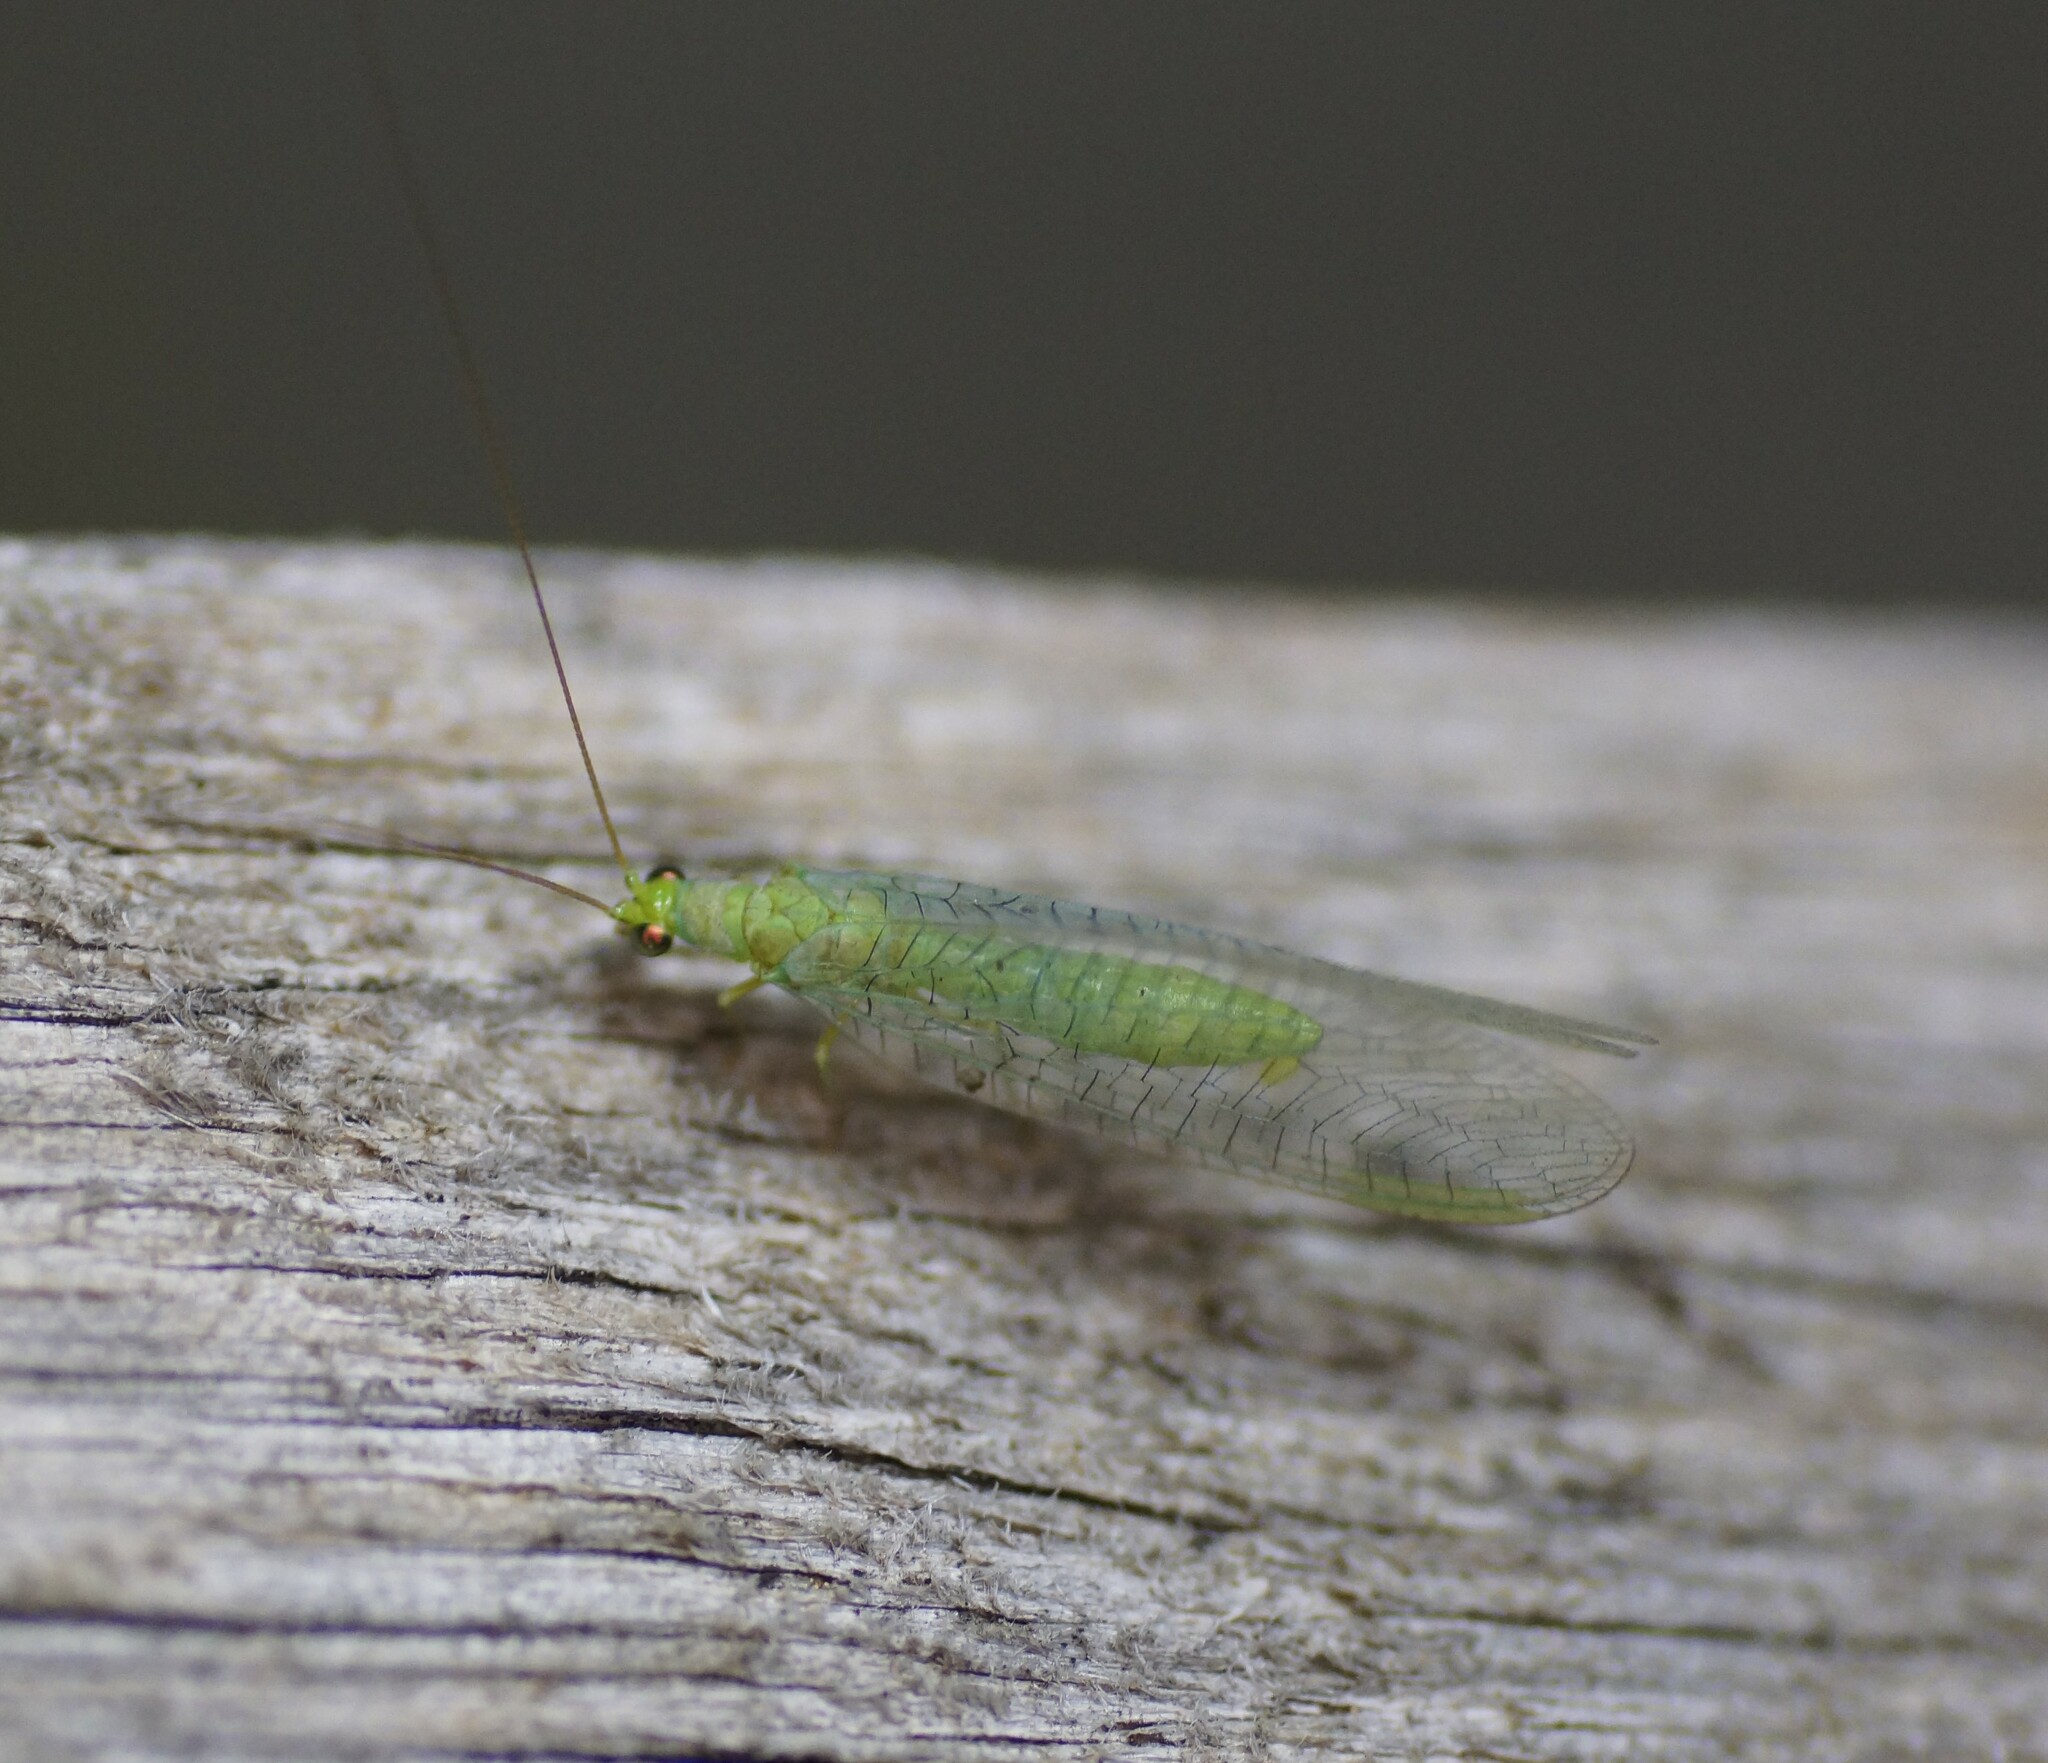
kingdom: Animalia
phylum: Arthropoda
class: Insecta
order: Neuroptera
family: Chrysopidae
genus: Mallada
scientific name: Mallada signatus
